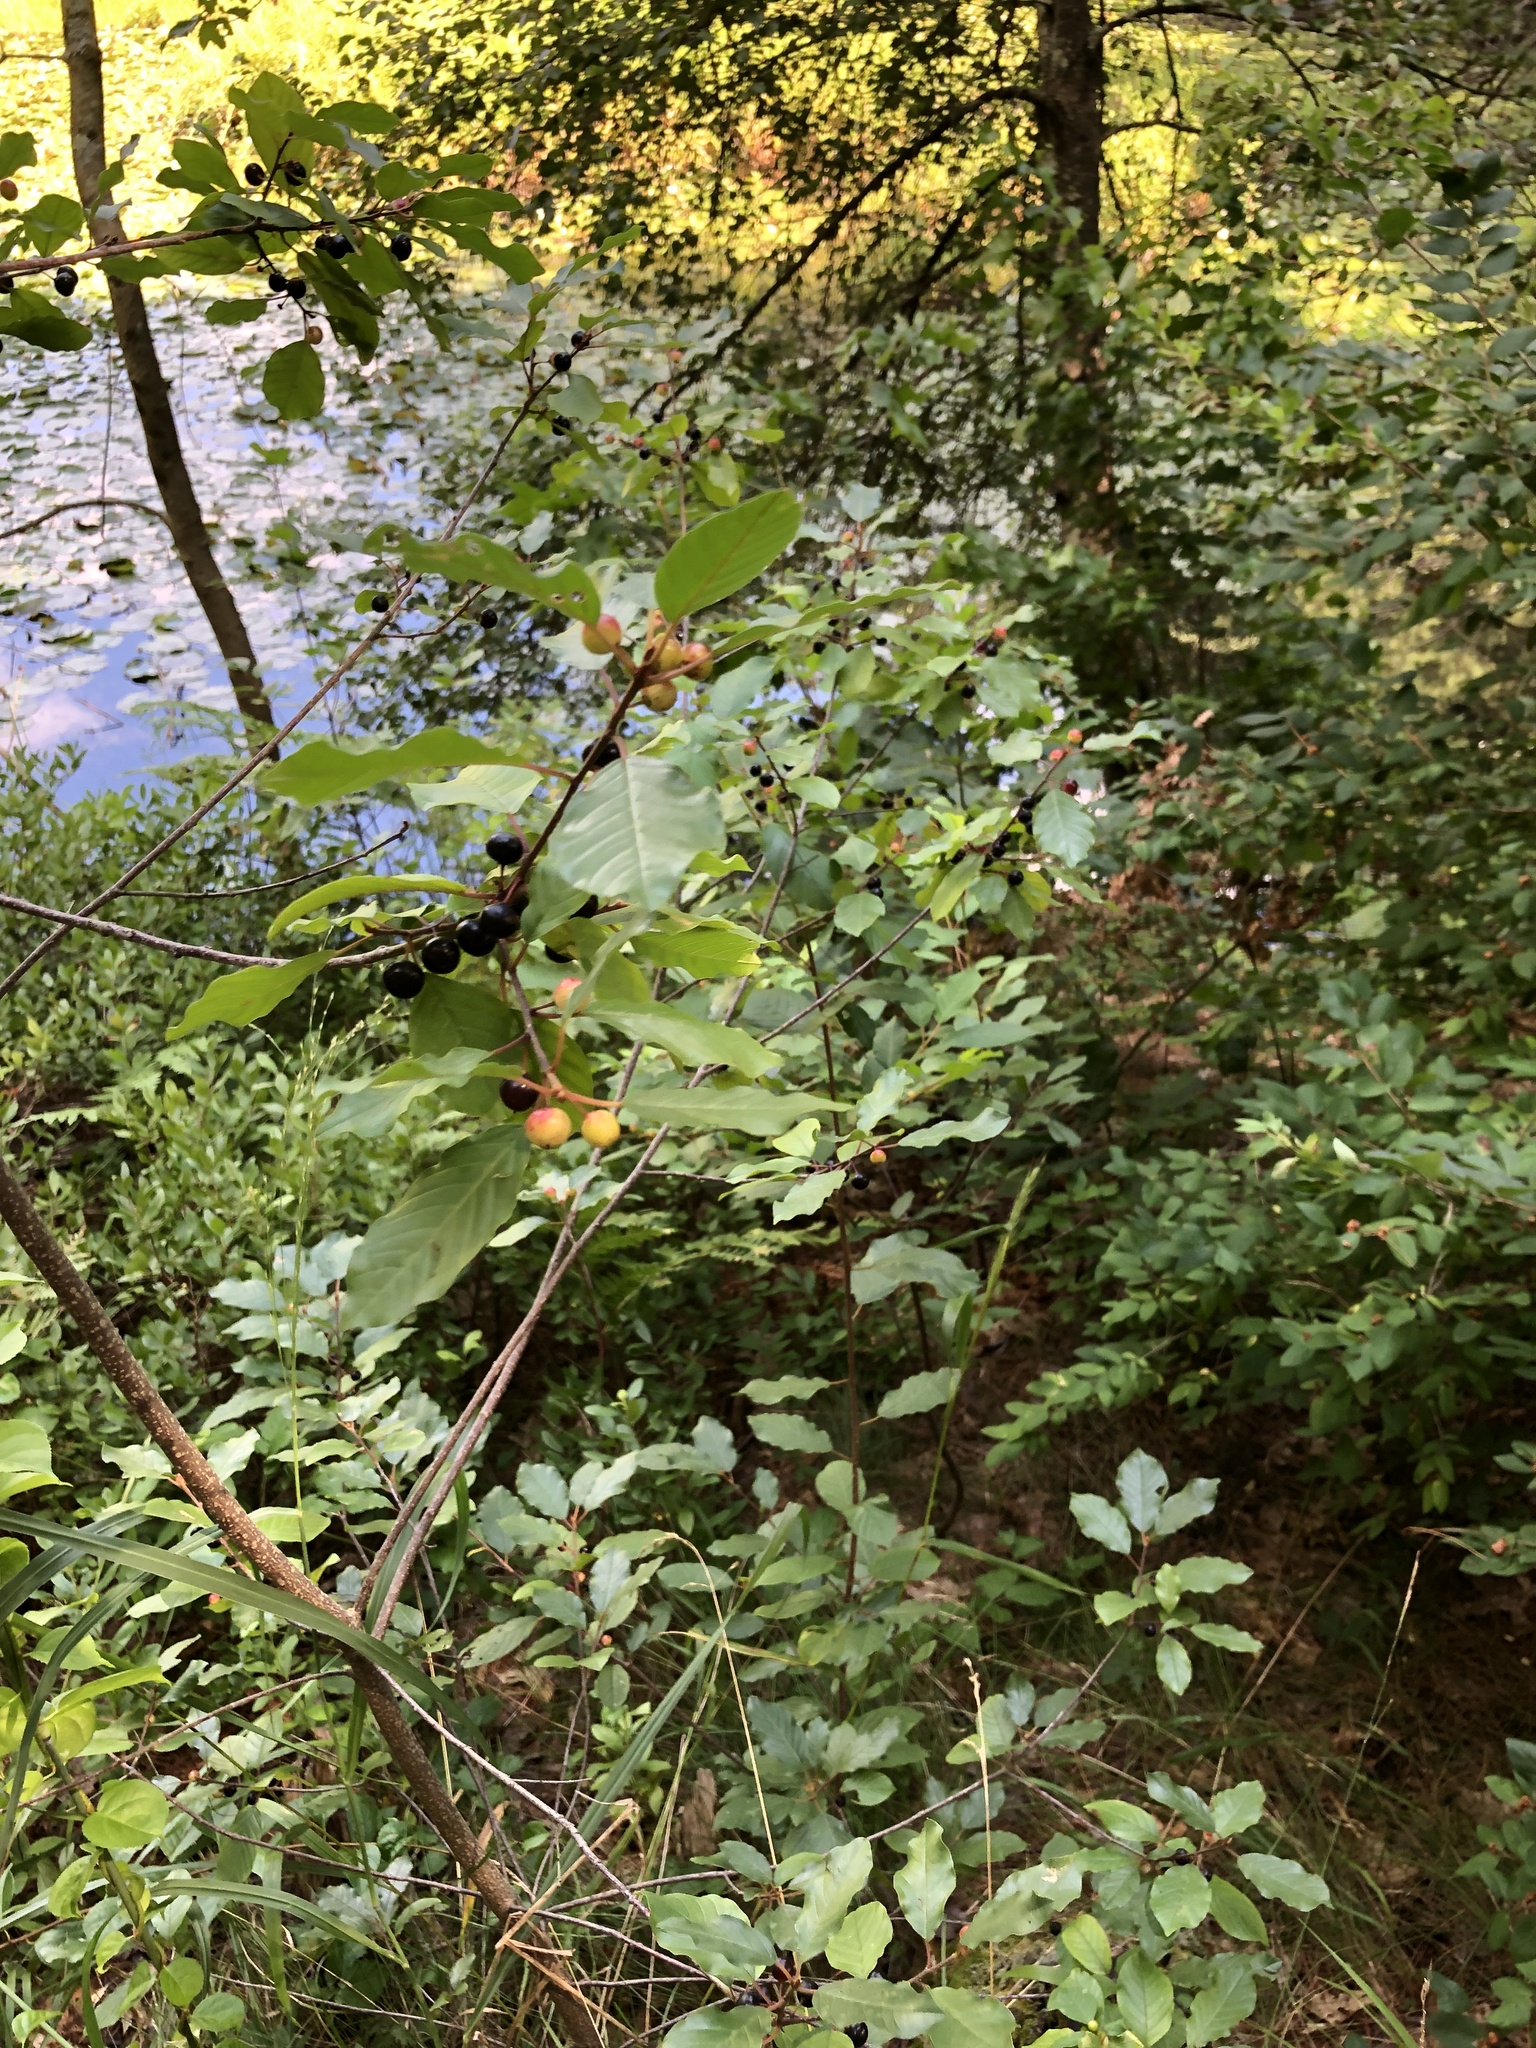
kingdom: Plantae
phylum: Tracheophyta
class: Magnoliopsida
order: Rosales
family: Rhamnaceae
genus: Frangula
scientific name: Frangula alnus
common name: Alder buckthorn
